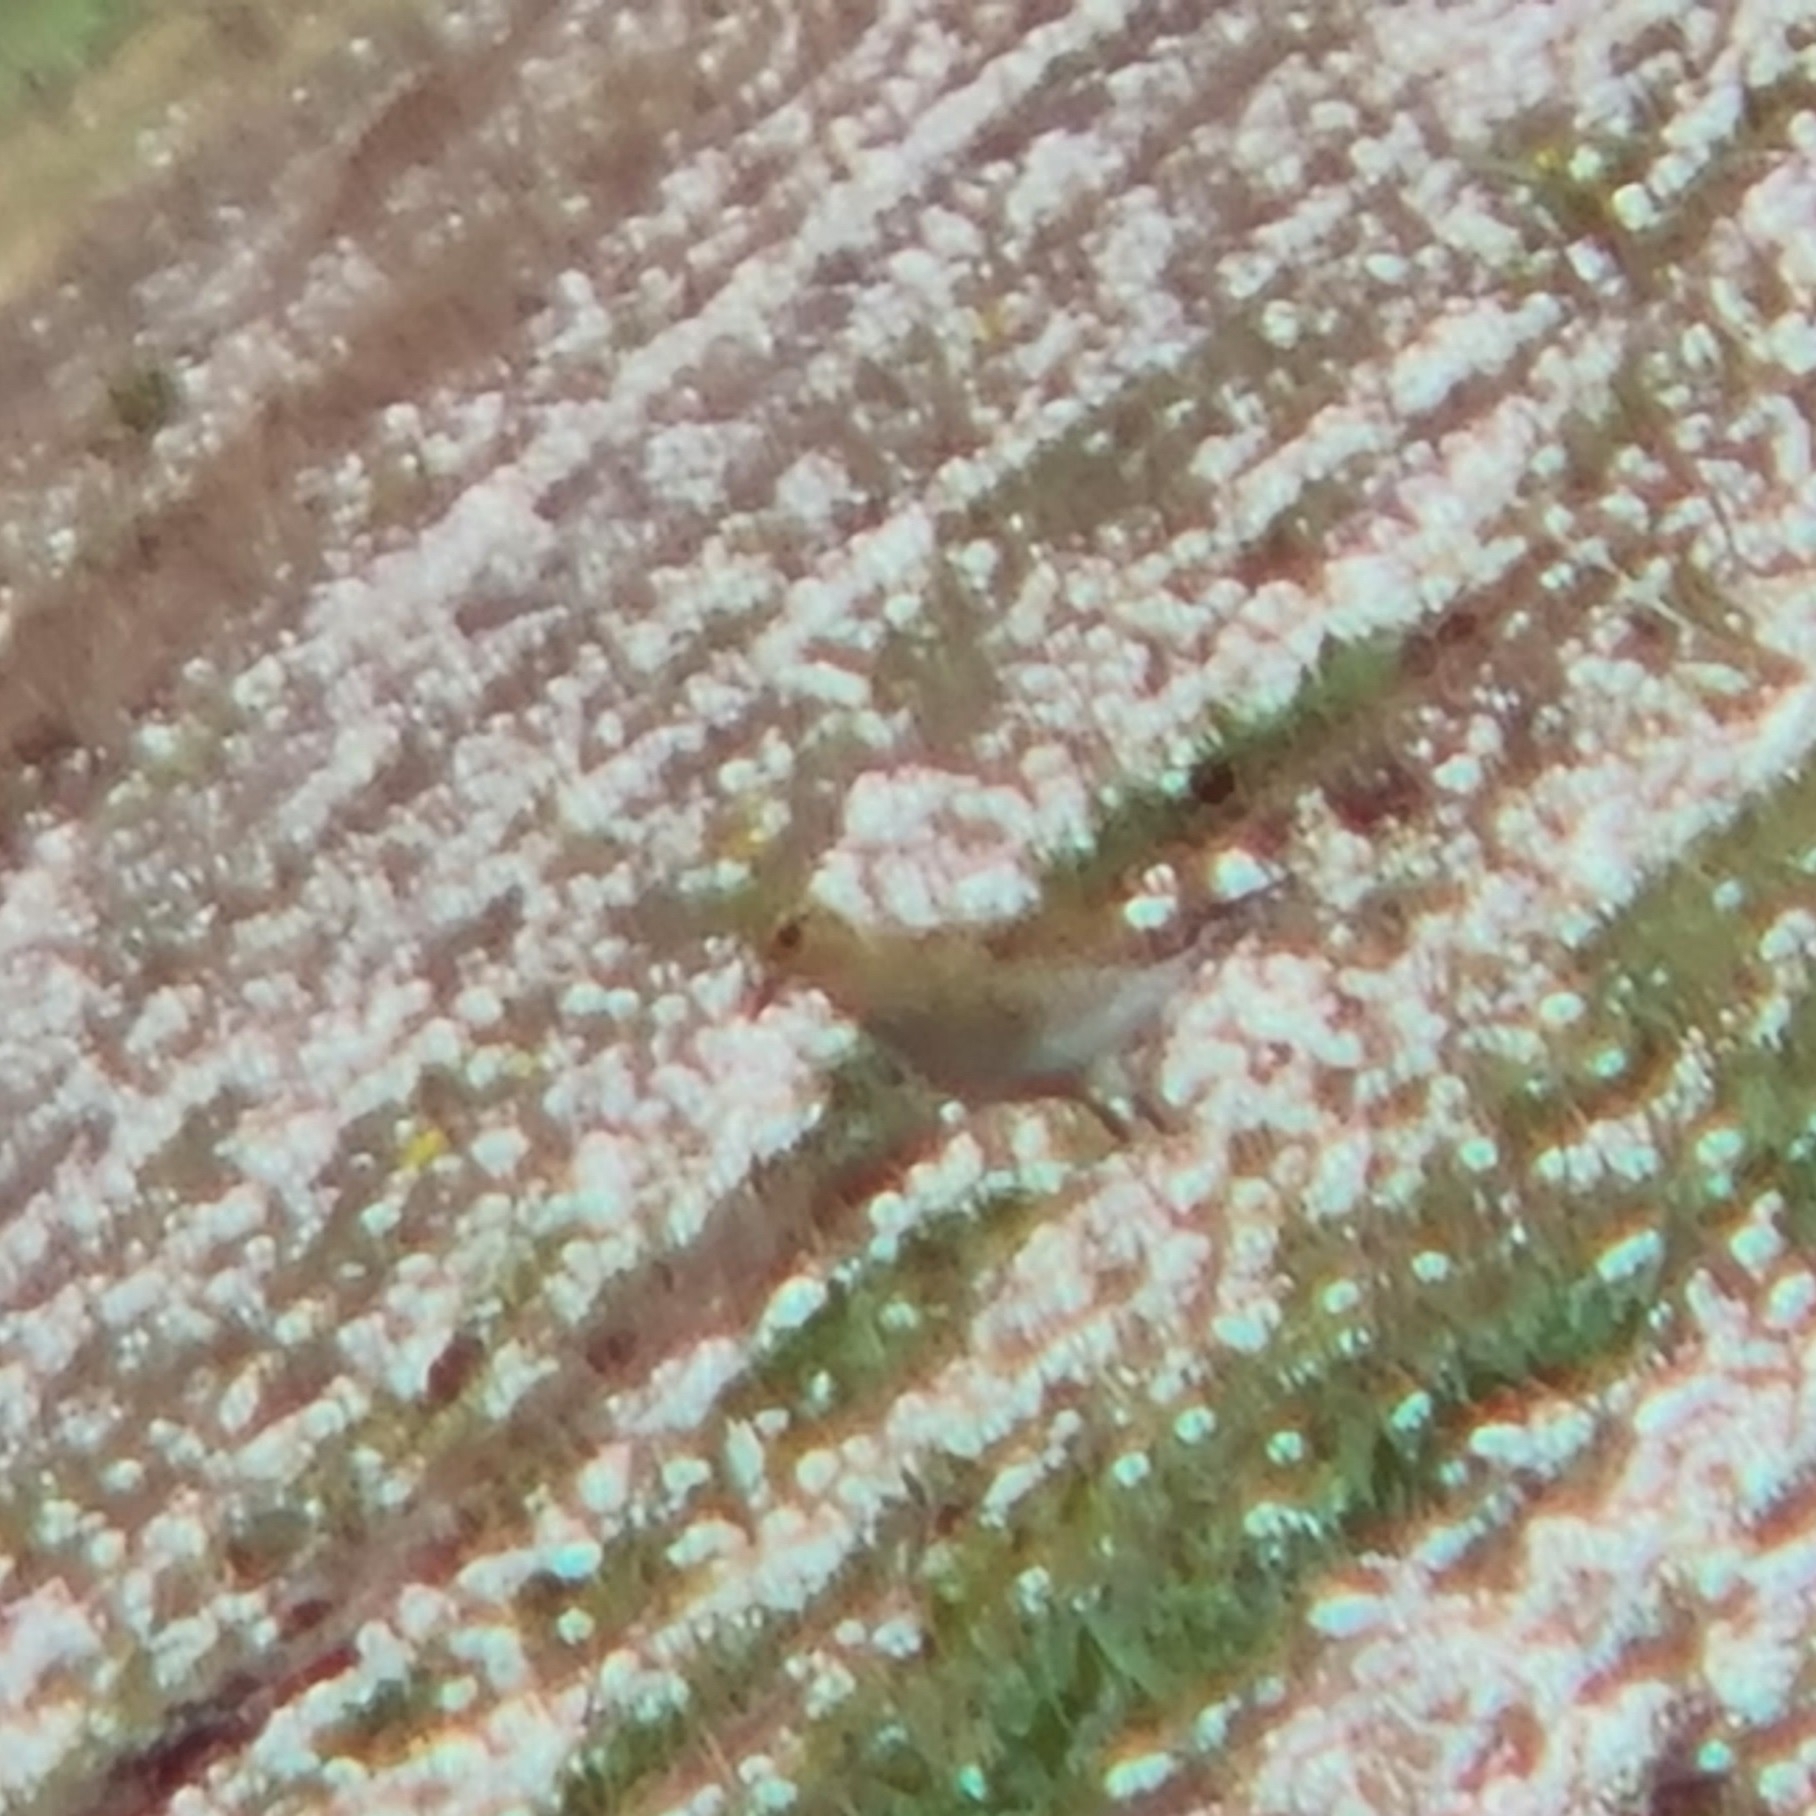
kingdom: Animalia
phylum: Chordata
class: Aves
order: Charadriiformes
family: Charadriidae
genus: Pluvialis
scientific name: Pluvialis apricaria
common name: European golden plover
